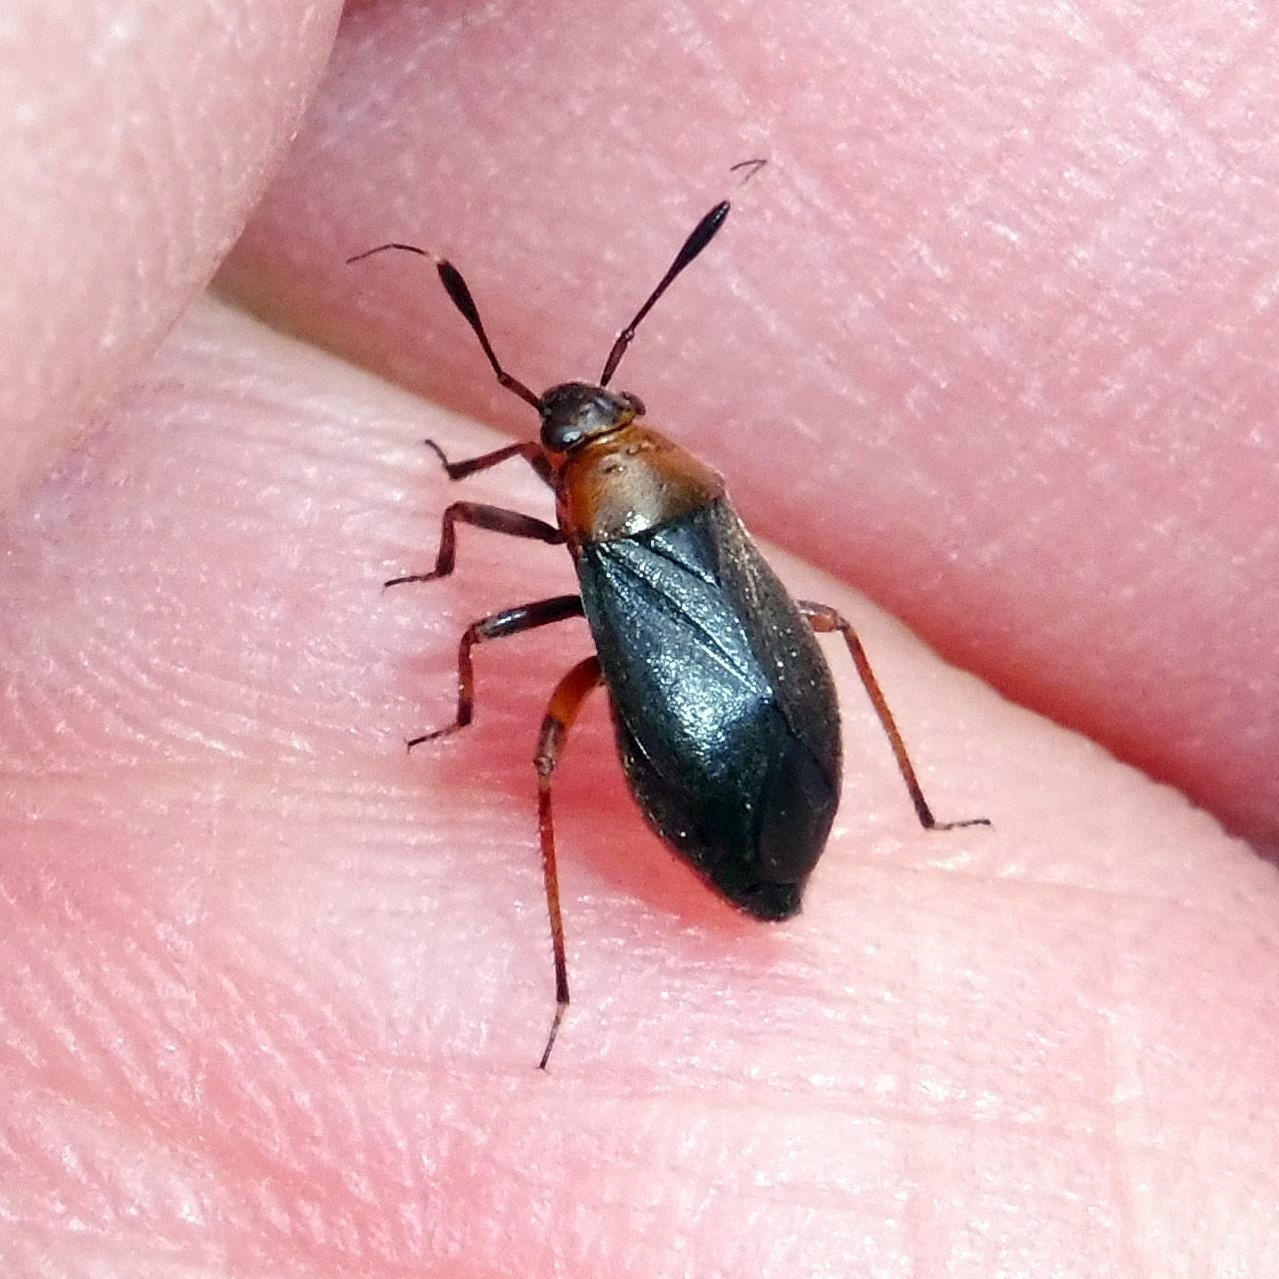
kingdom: Animalia
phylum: Arthropoda
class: Insecta
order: Hemiptera
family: Miridae
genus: Capsus
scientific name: Capsus ater
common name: Black plant bug
